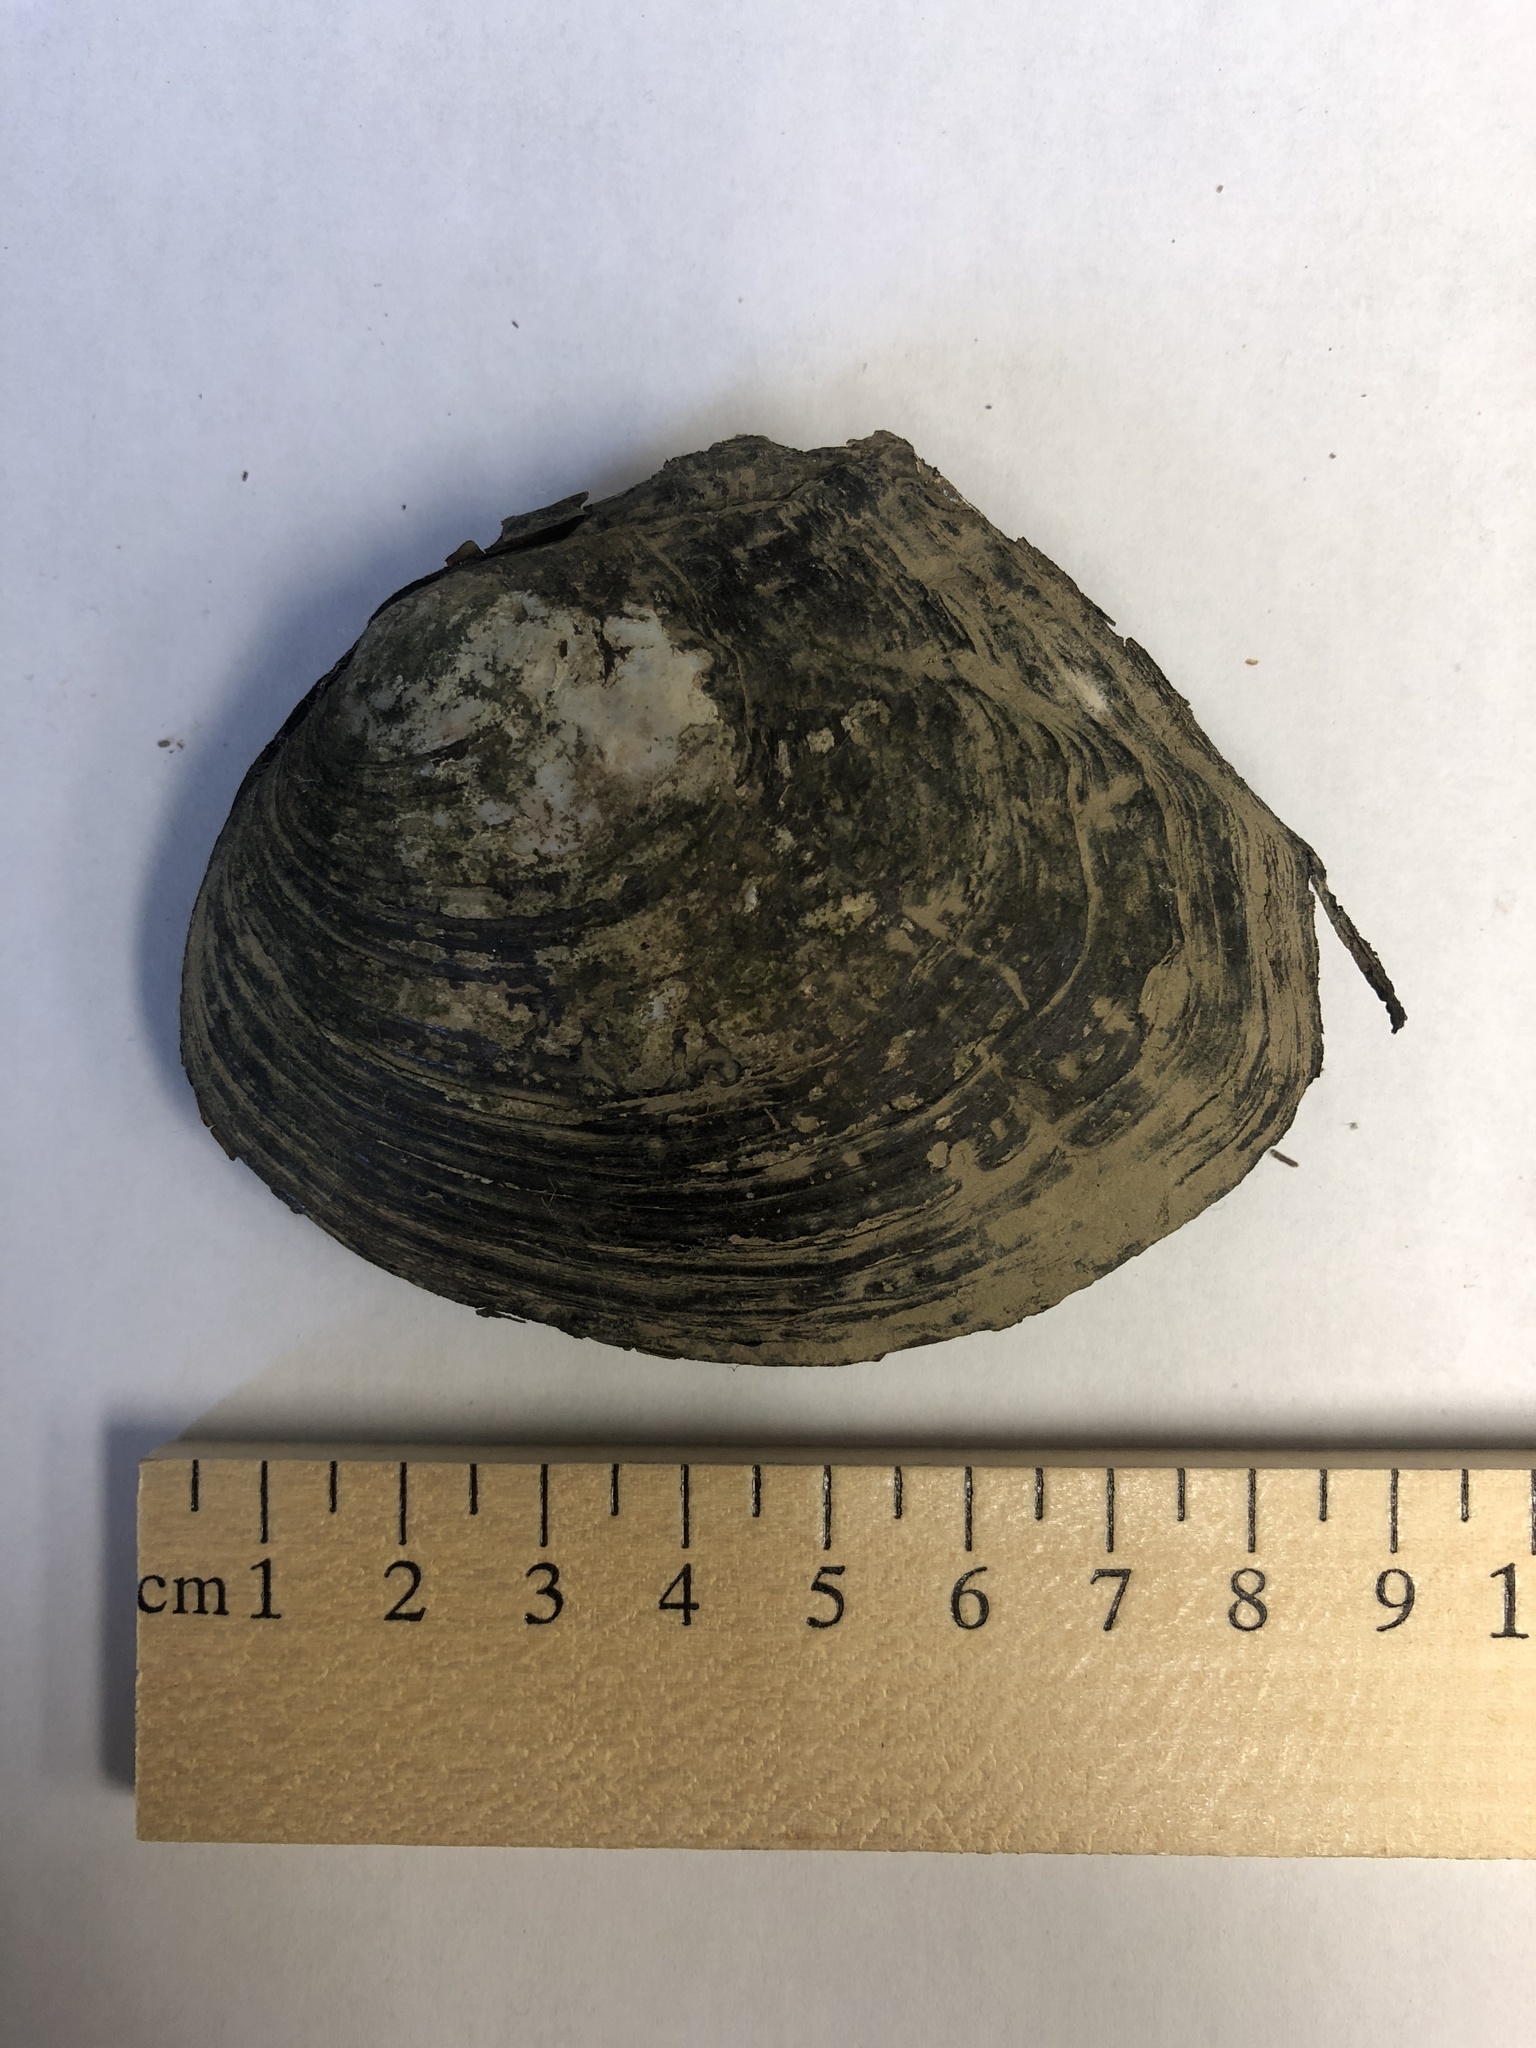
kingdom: Animalia
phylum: Mollusca
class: Bivalvia
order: Unionida
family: Unionidae
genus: Lasmigona
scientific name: Lasmigona complanata
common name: White heelsplitter
